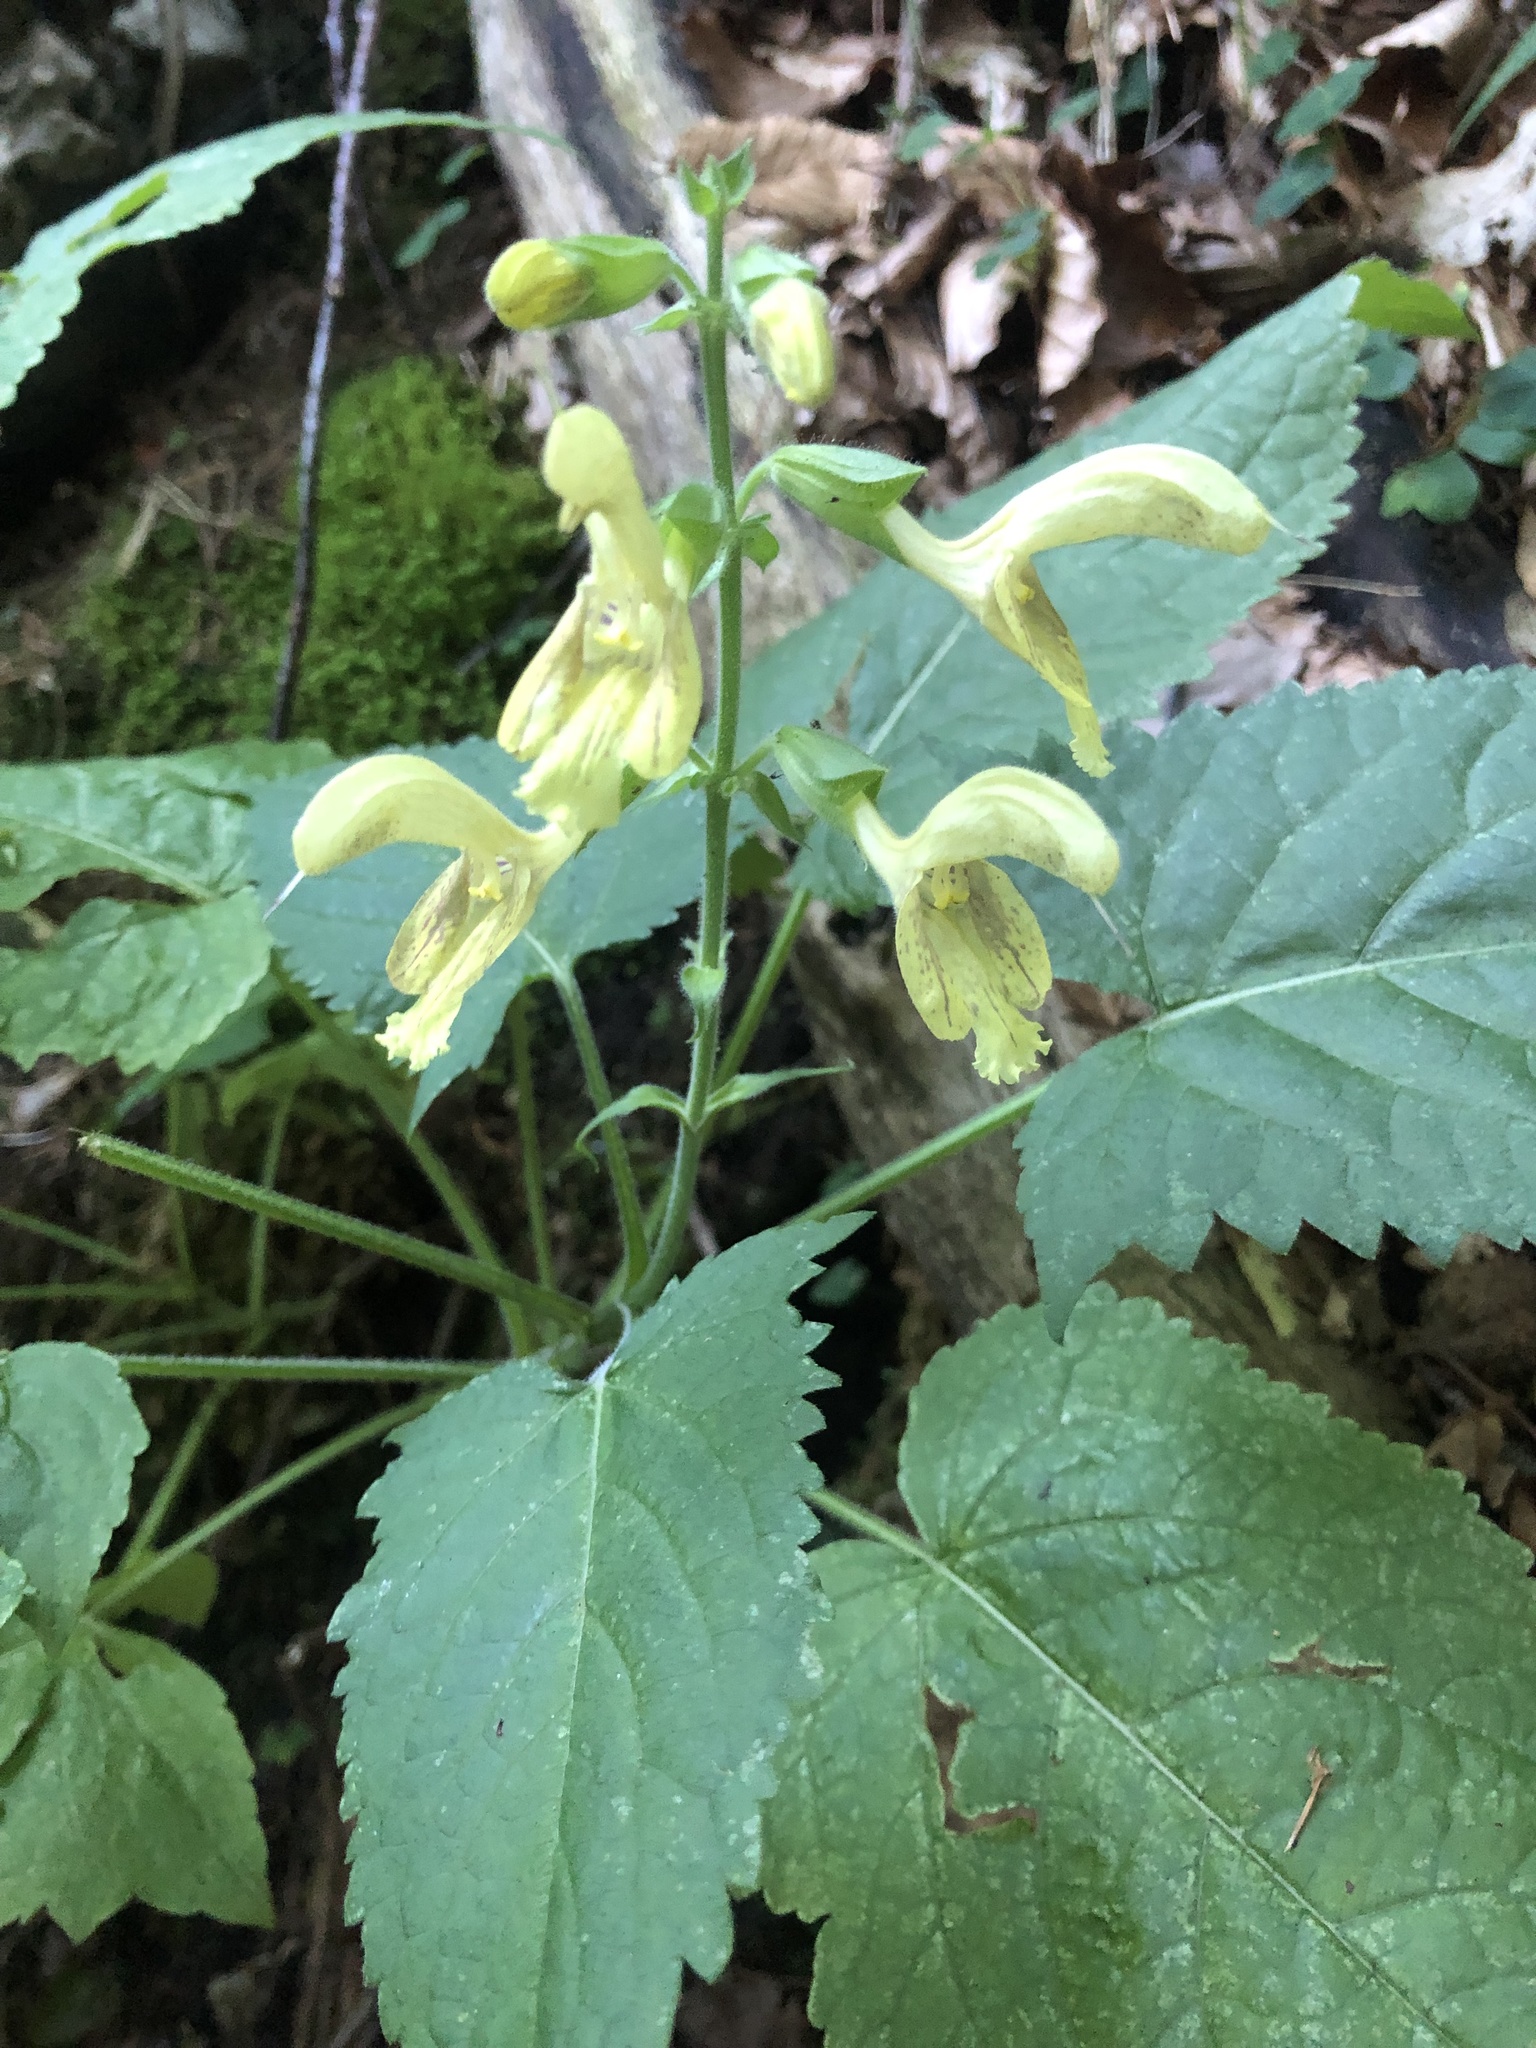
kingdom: Plantae
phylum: Tracheophyta
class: Magnoliopsida
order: Lamiales
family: Lamiaceae
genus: Salvia
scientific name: Salvia glutinosa
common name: Sticky clary
